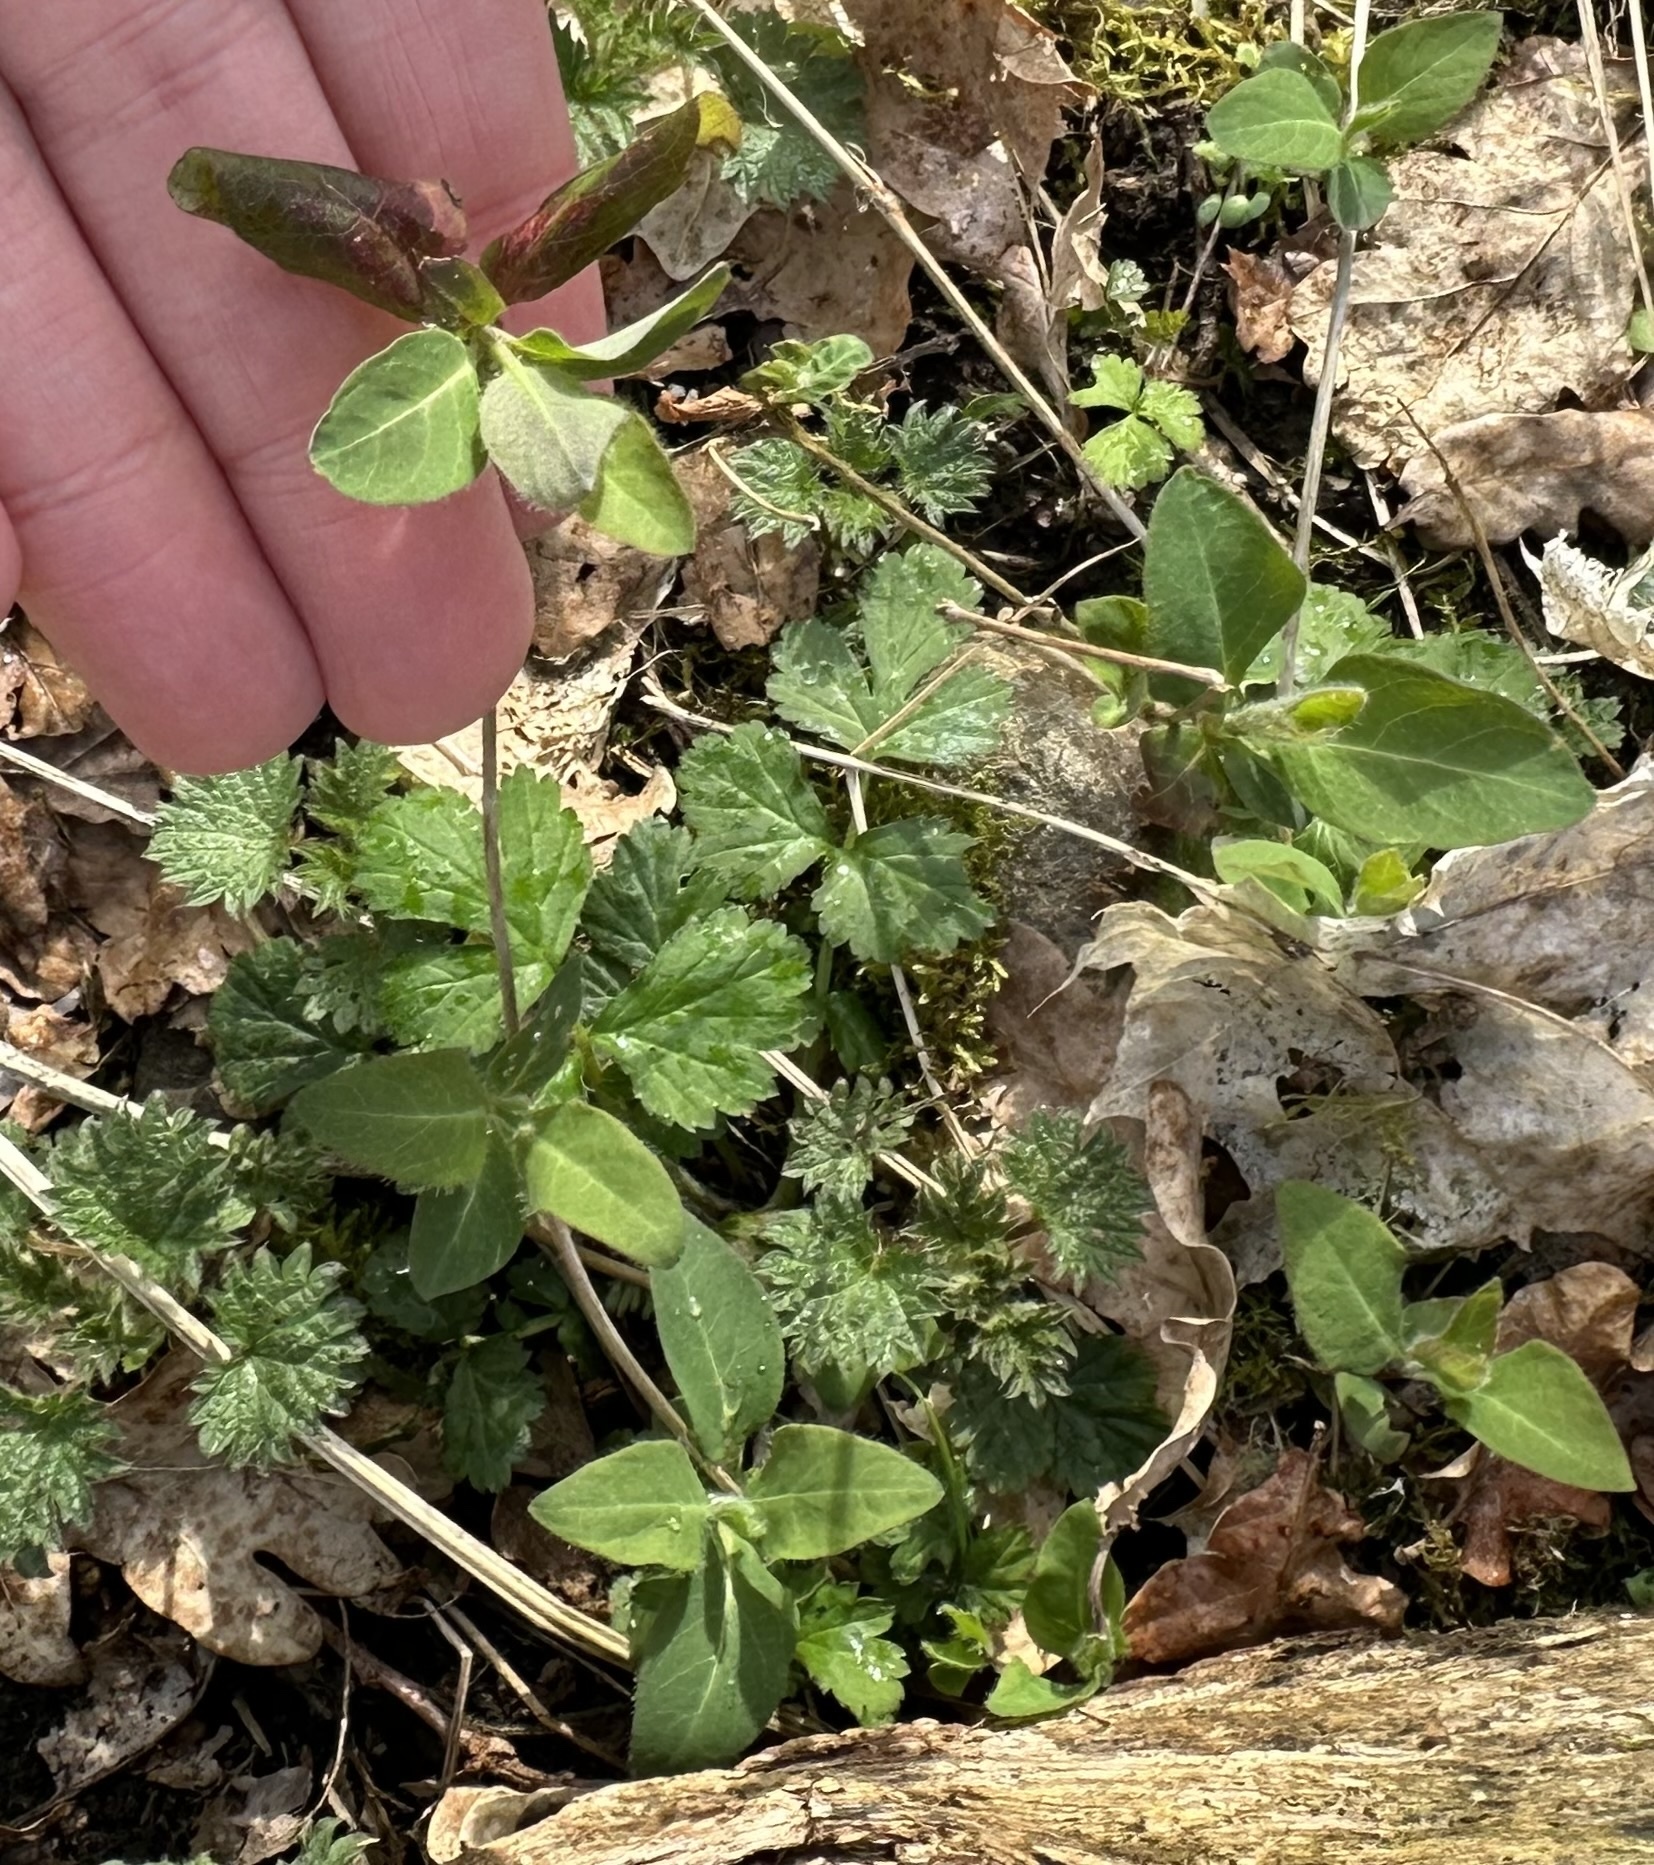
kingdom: Plantae
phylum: Tracheophyta
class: Magnoliopsida
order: Dipsacales
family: Caprifoliaceae
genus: Lonicera
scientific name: Lonicera periclymenum
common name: European honeysuckle
